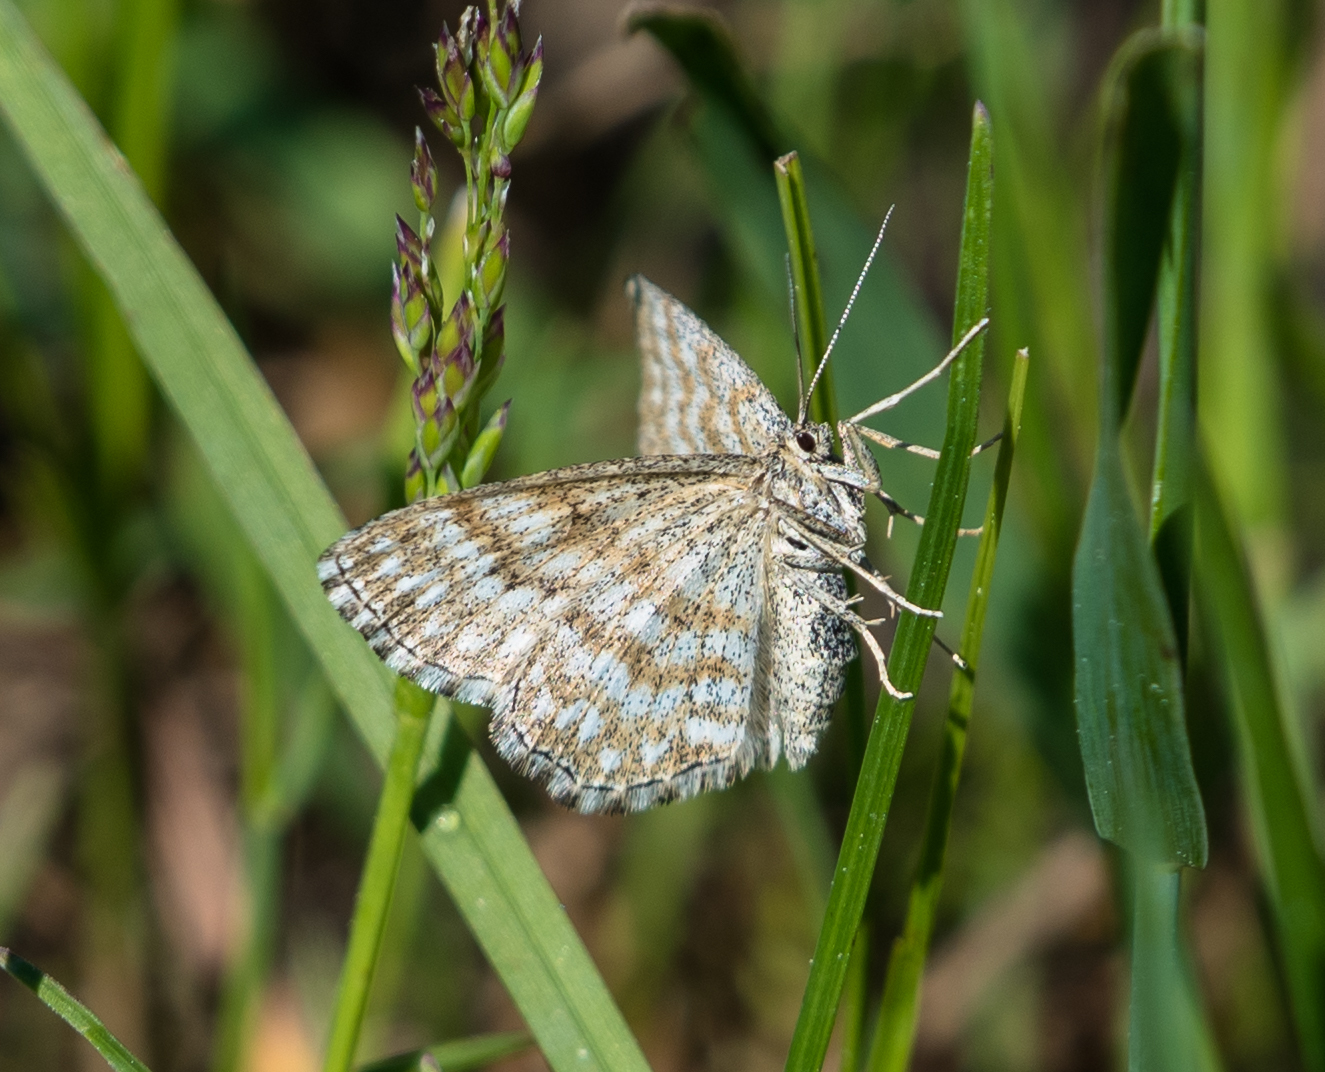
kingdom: Animalia
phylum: Arthropoda
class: Insecta
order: Lepidoptera
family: Geometridae
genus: Scopula
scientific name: Scopula immorata
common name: Lewes wave
